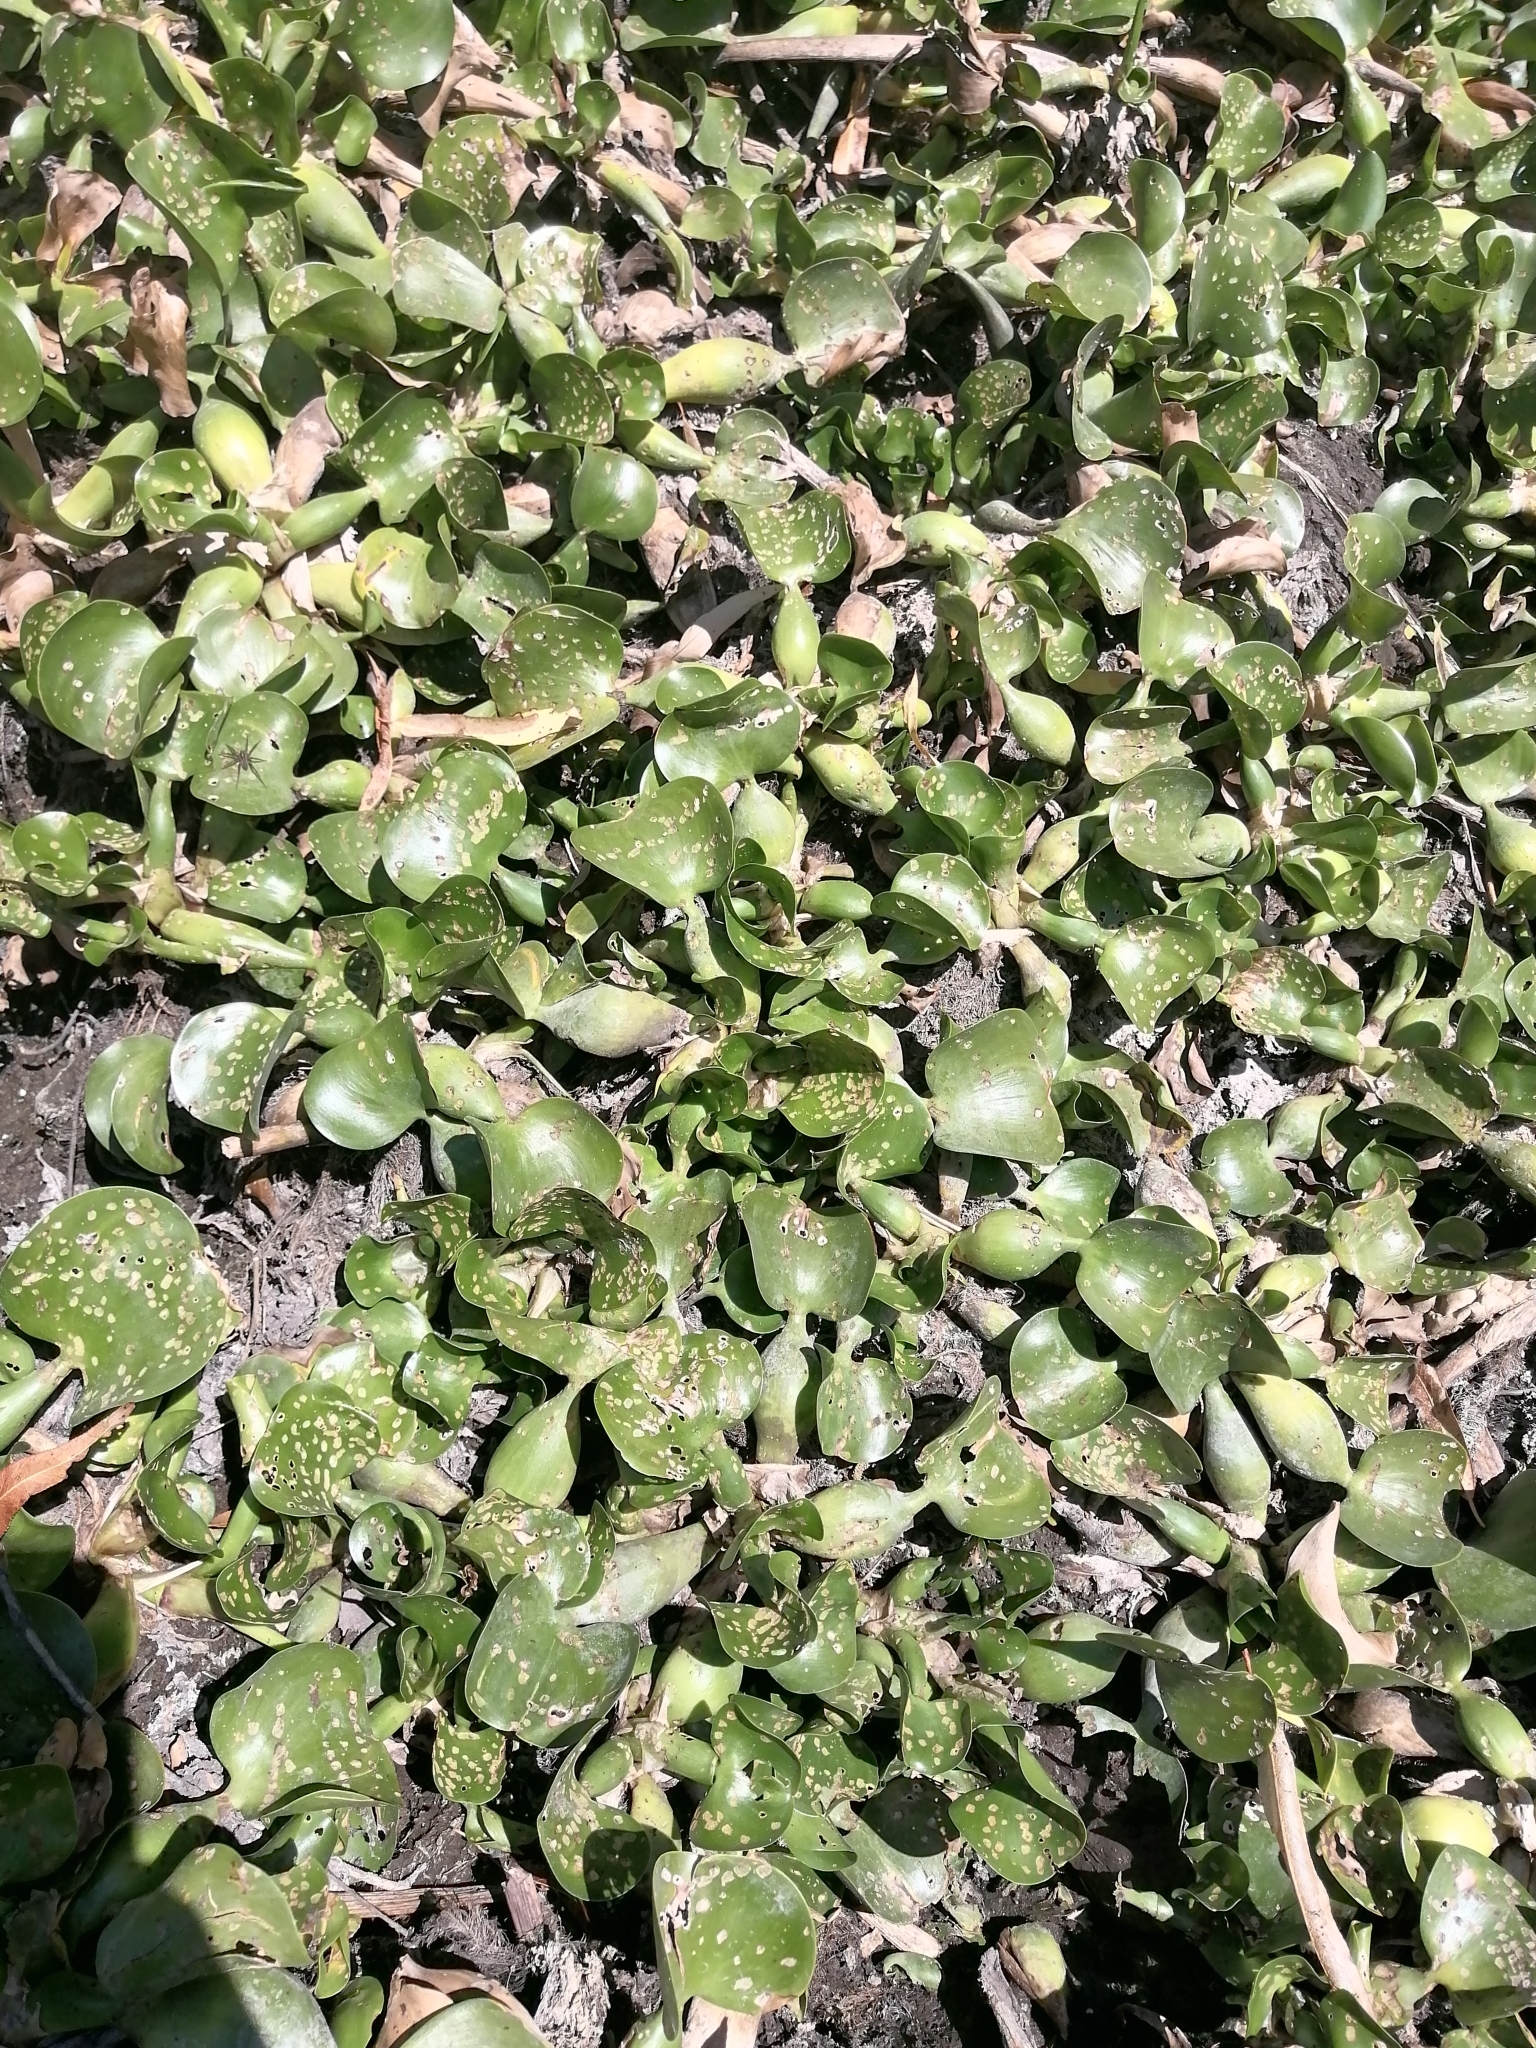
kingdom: Plantae
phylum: Tracheophyta
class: Liliopsida
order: Commelinales
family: Pontederiaceae
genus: Pontederia
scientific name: Pontederia crassipes
